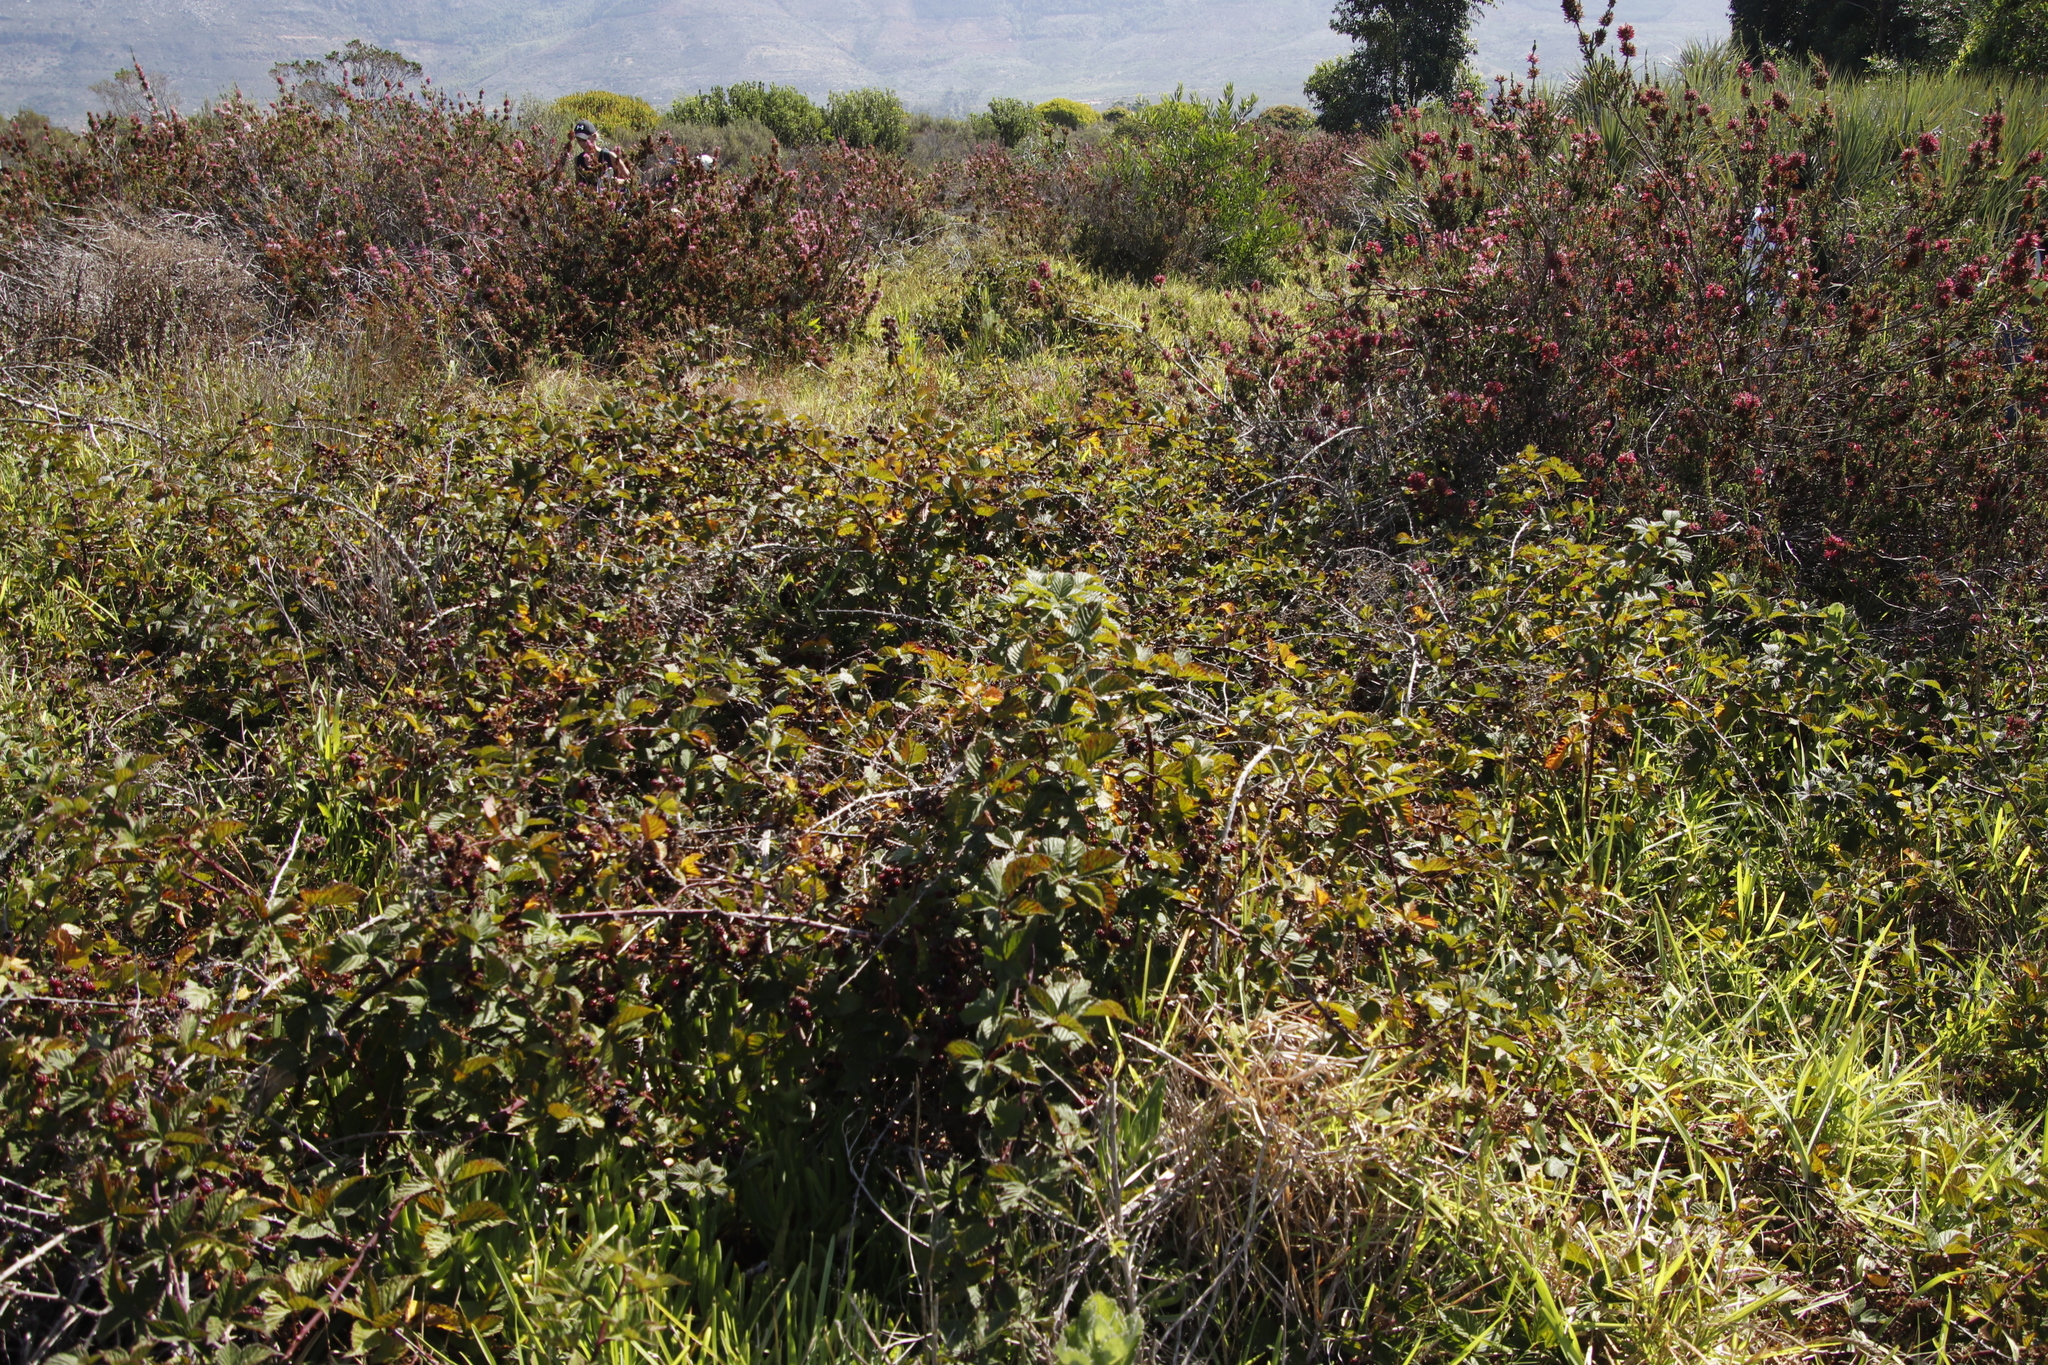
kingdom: Plantae
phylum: Tracheophyta
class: Magnoliopsida
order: Rosales
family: Rosaceae
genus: Rubus
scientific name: Rubus affinis
